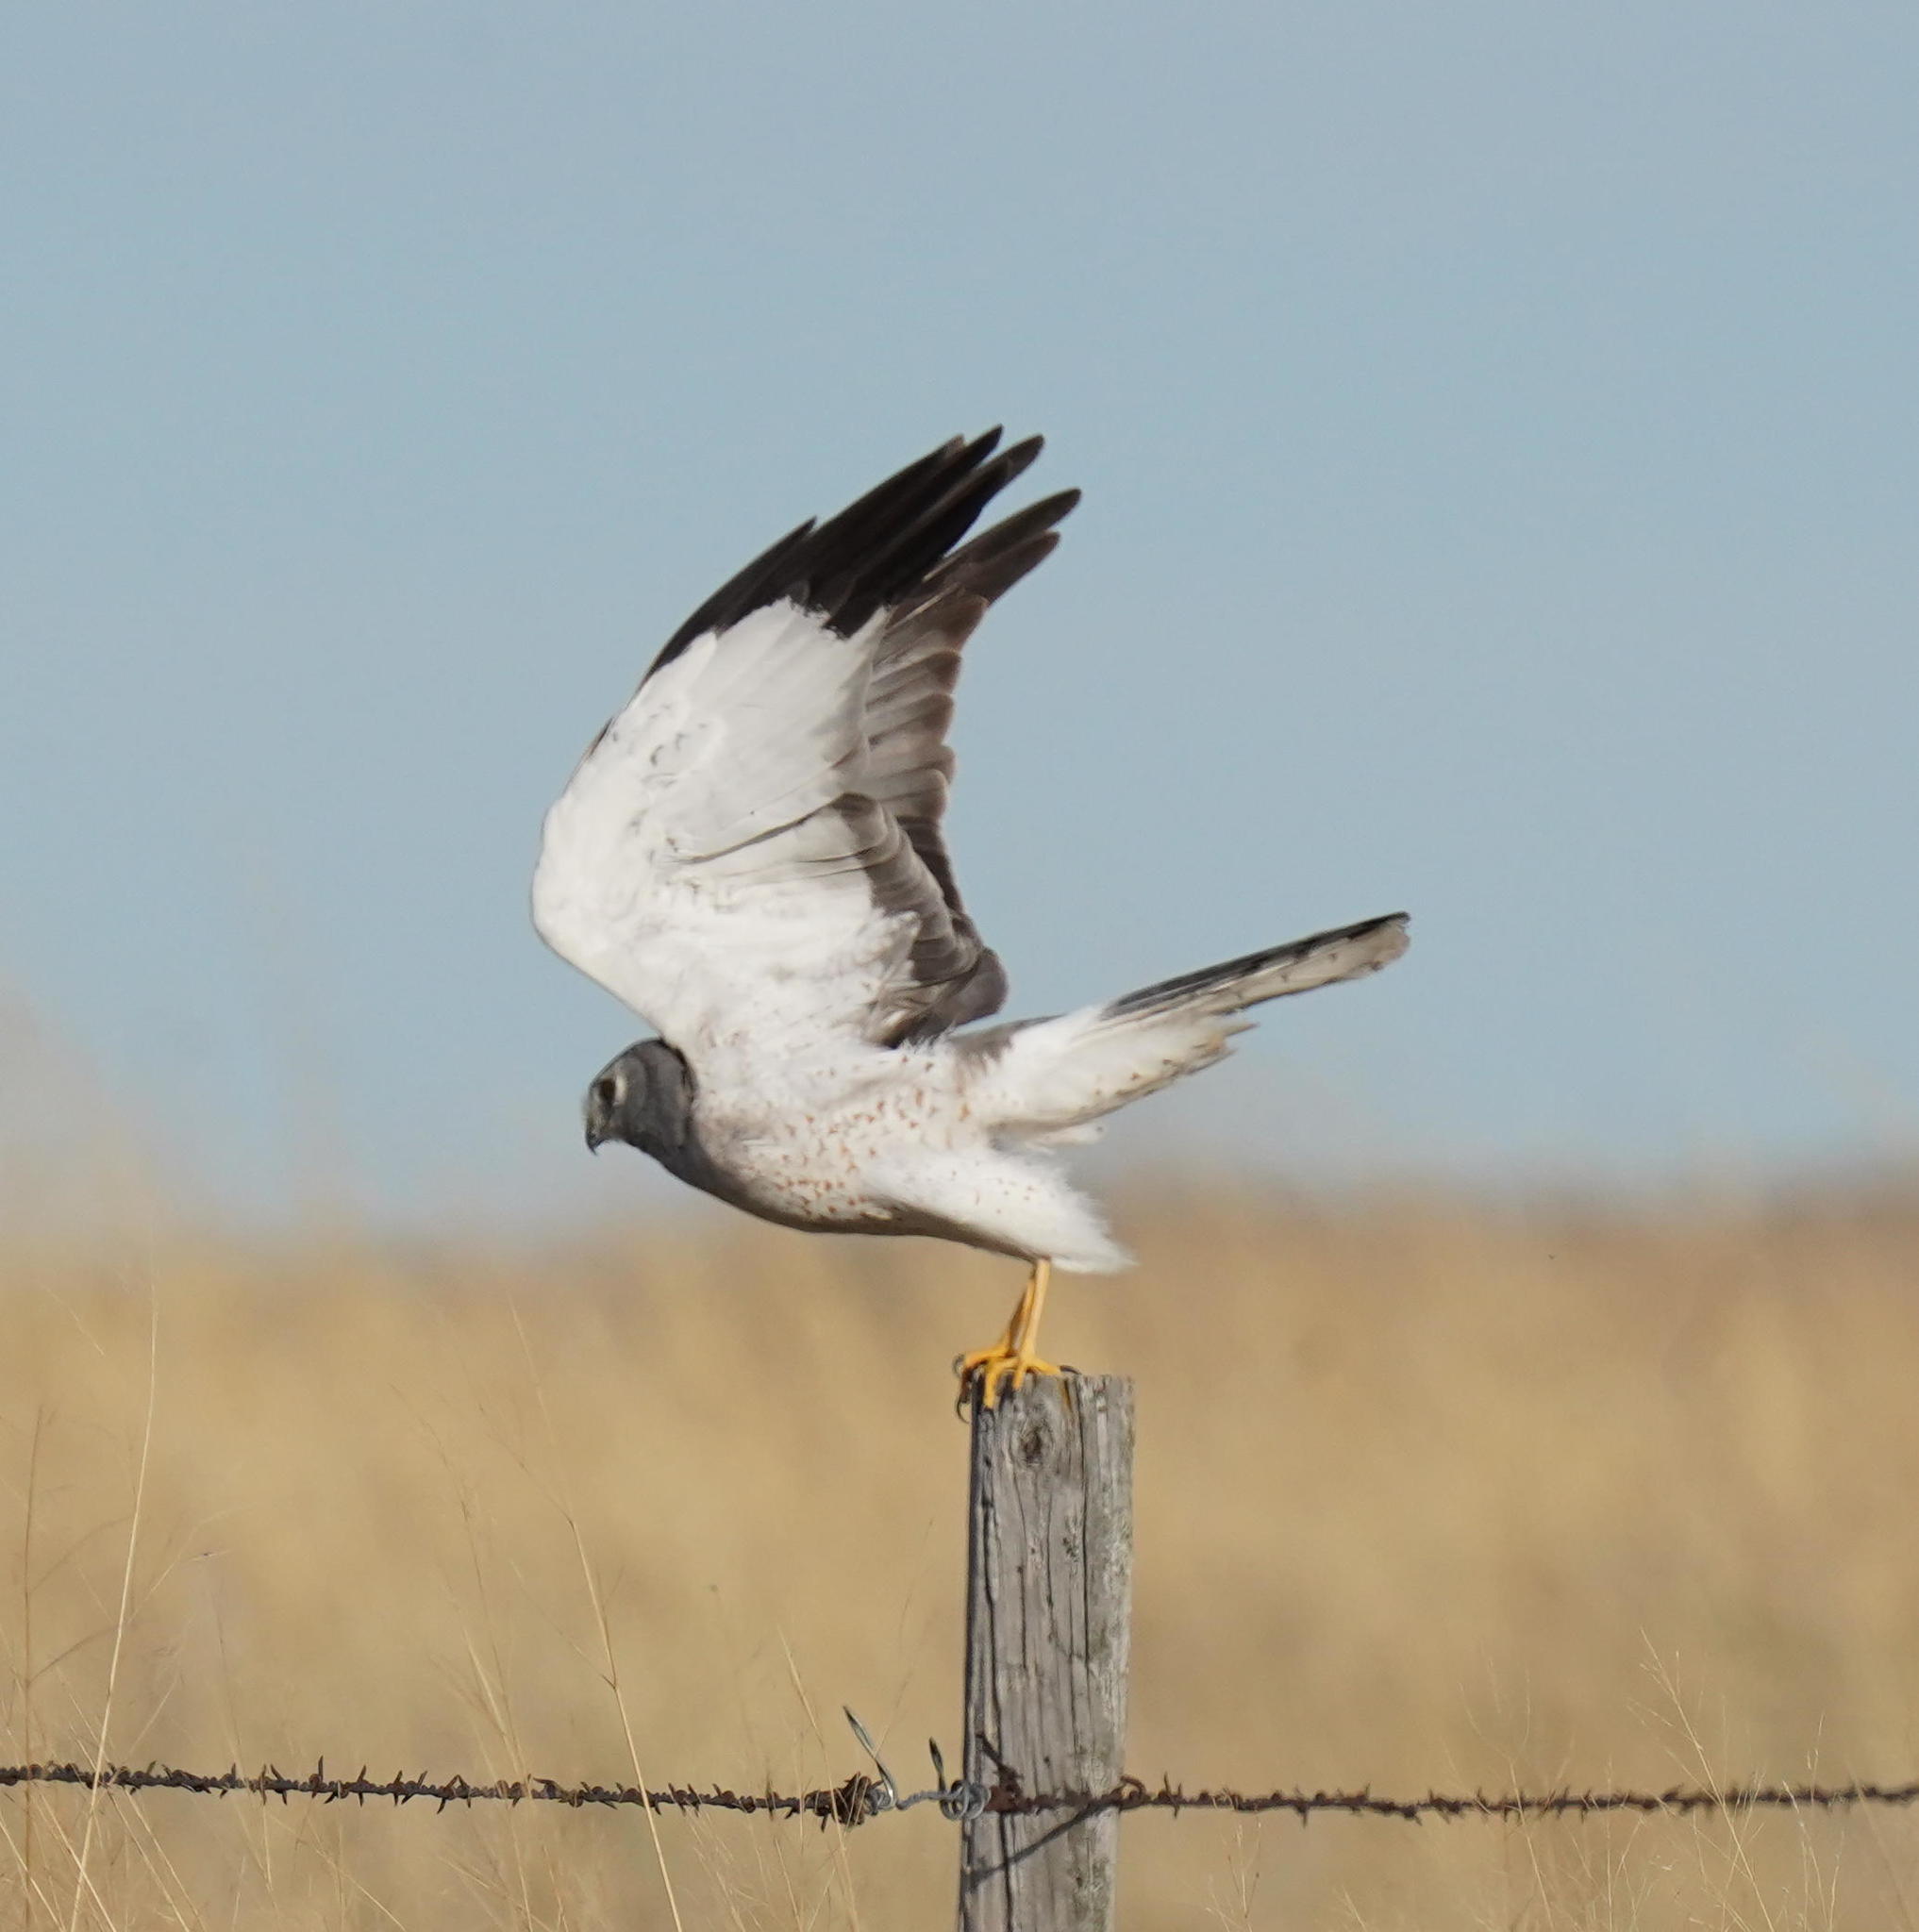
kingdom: Animalia
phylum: Chordata
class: Aves
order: Accipitriformes
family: Accipitridae
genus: Circus
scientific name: Circus cyaneus
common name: Hen harrier
